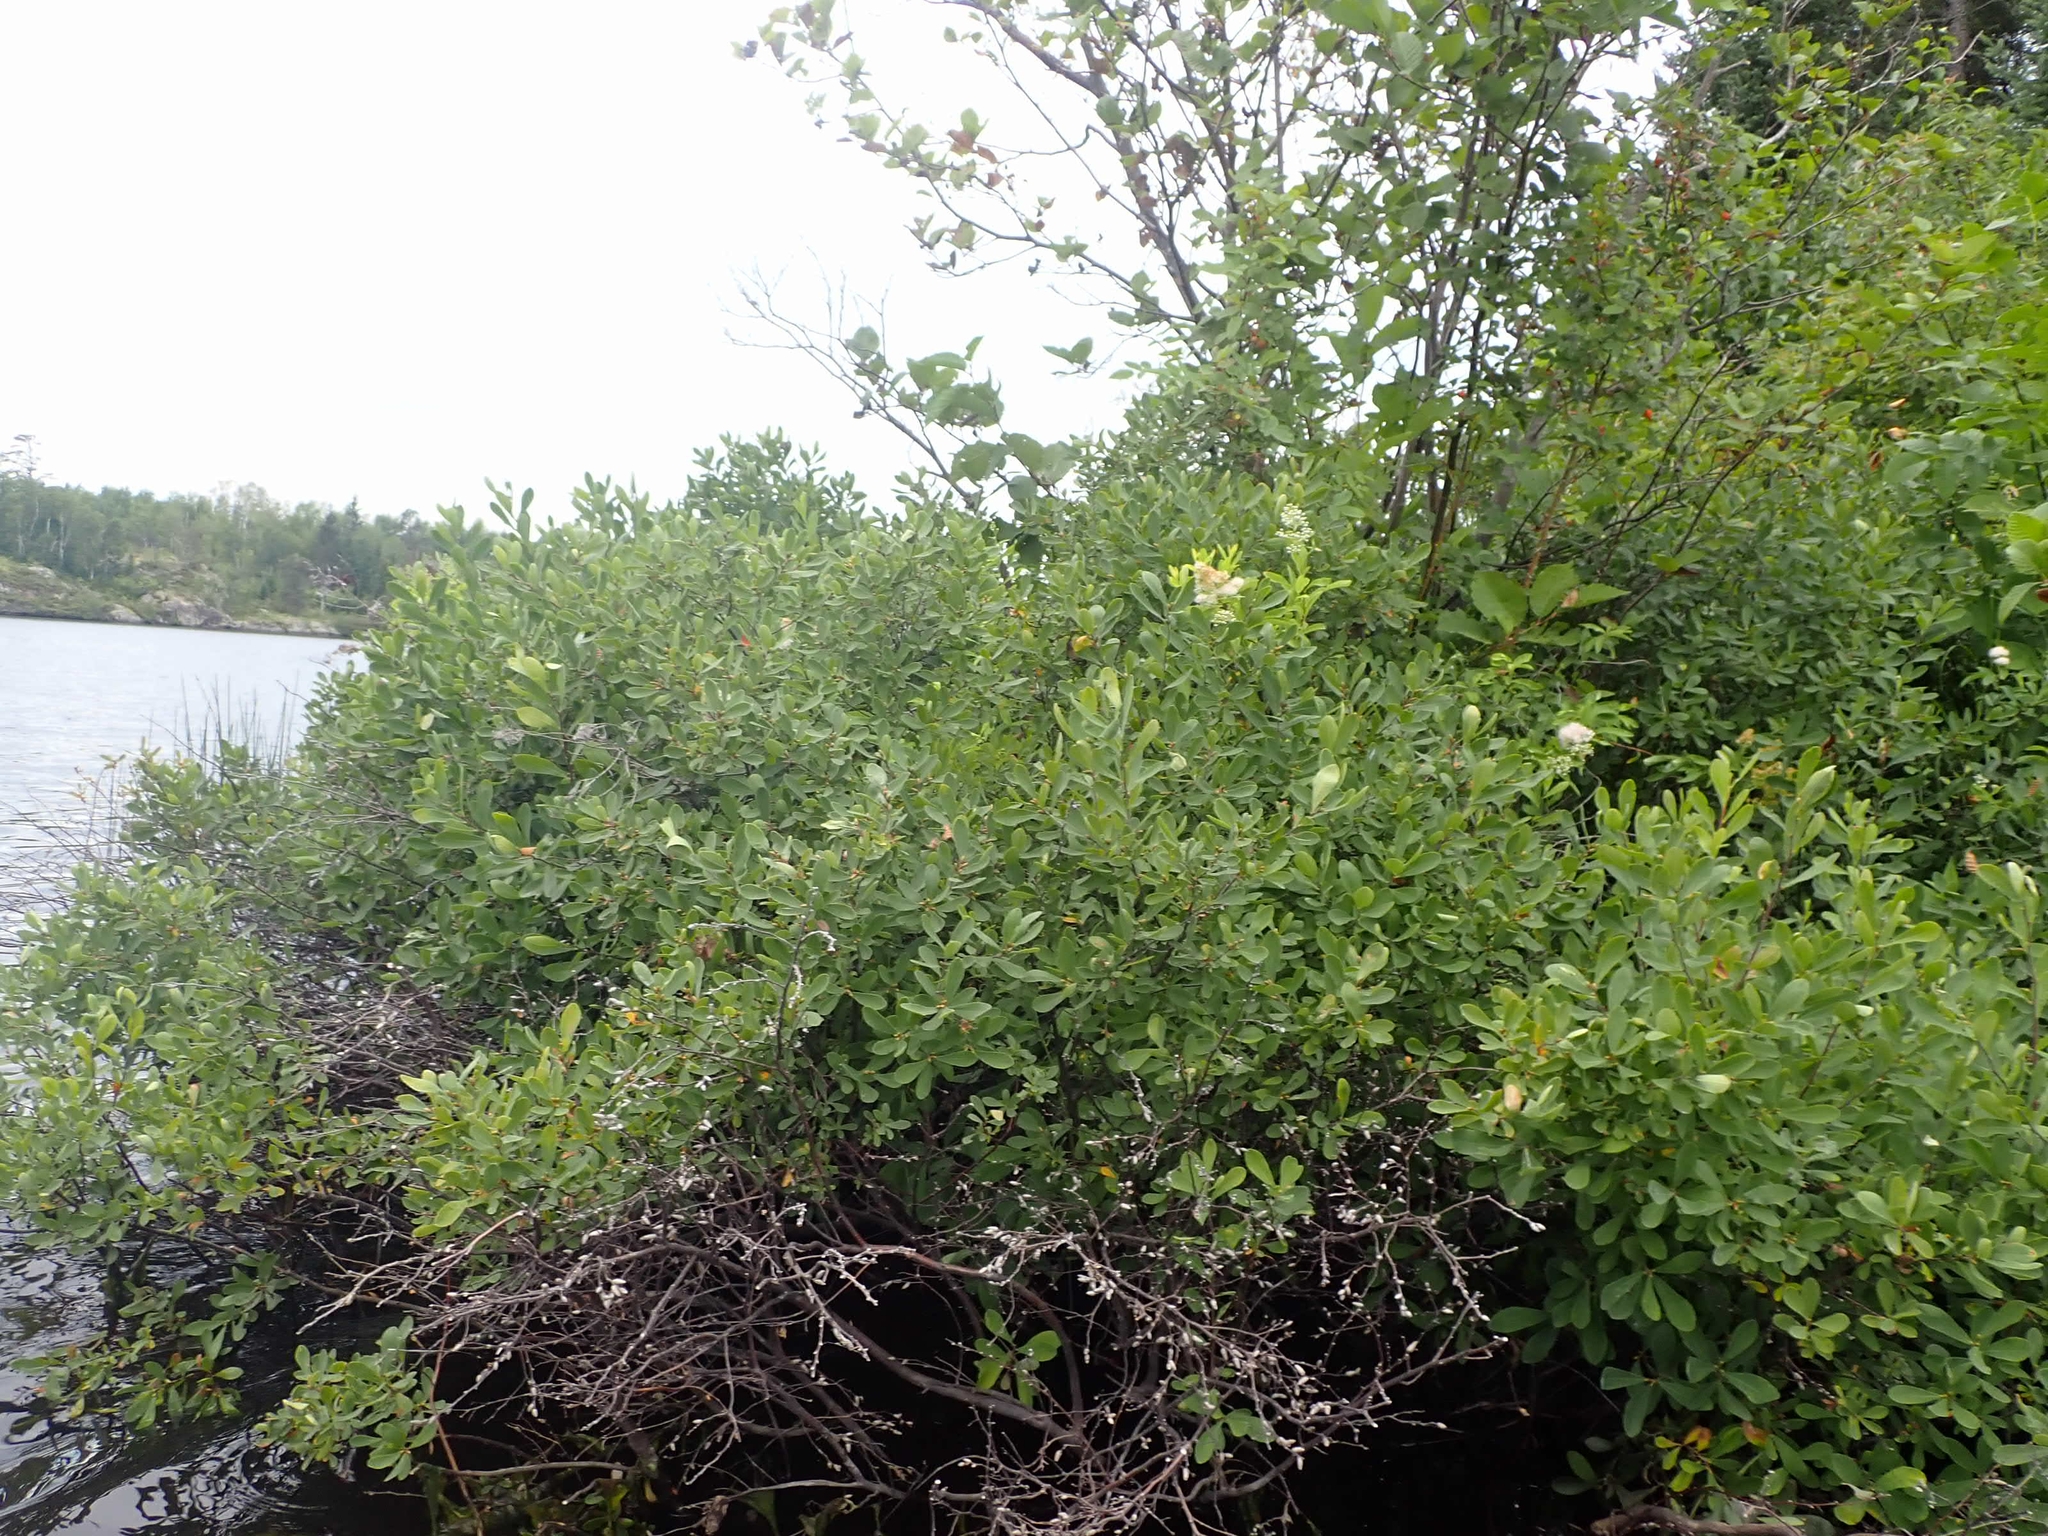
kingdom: Plantae
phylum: Tracheophyta
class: Magnoliopsida
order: Fagales
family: Myricaceae
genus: Myrica
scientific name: Myrica gale
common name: Sweet gale
